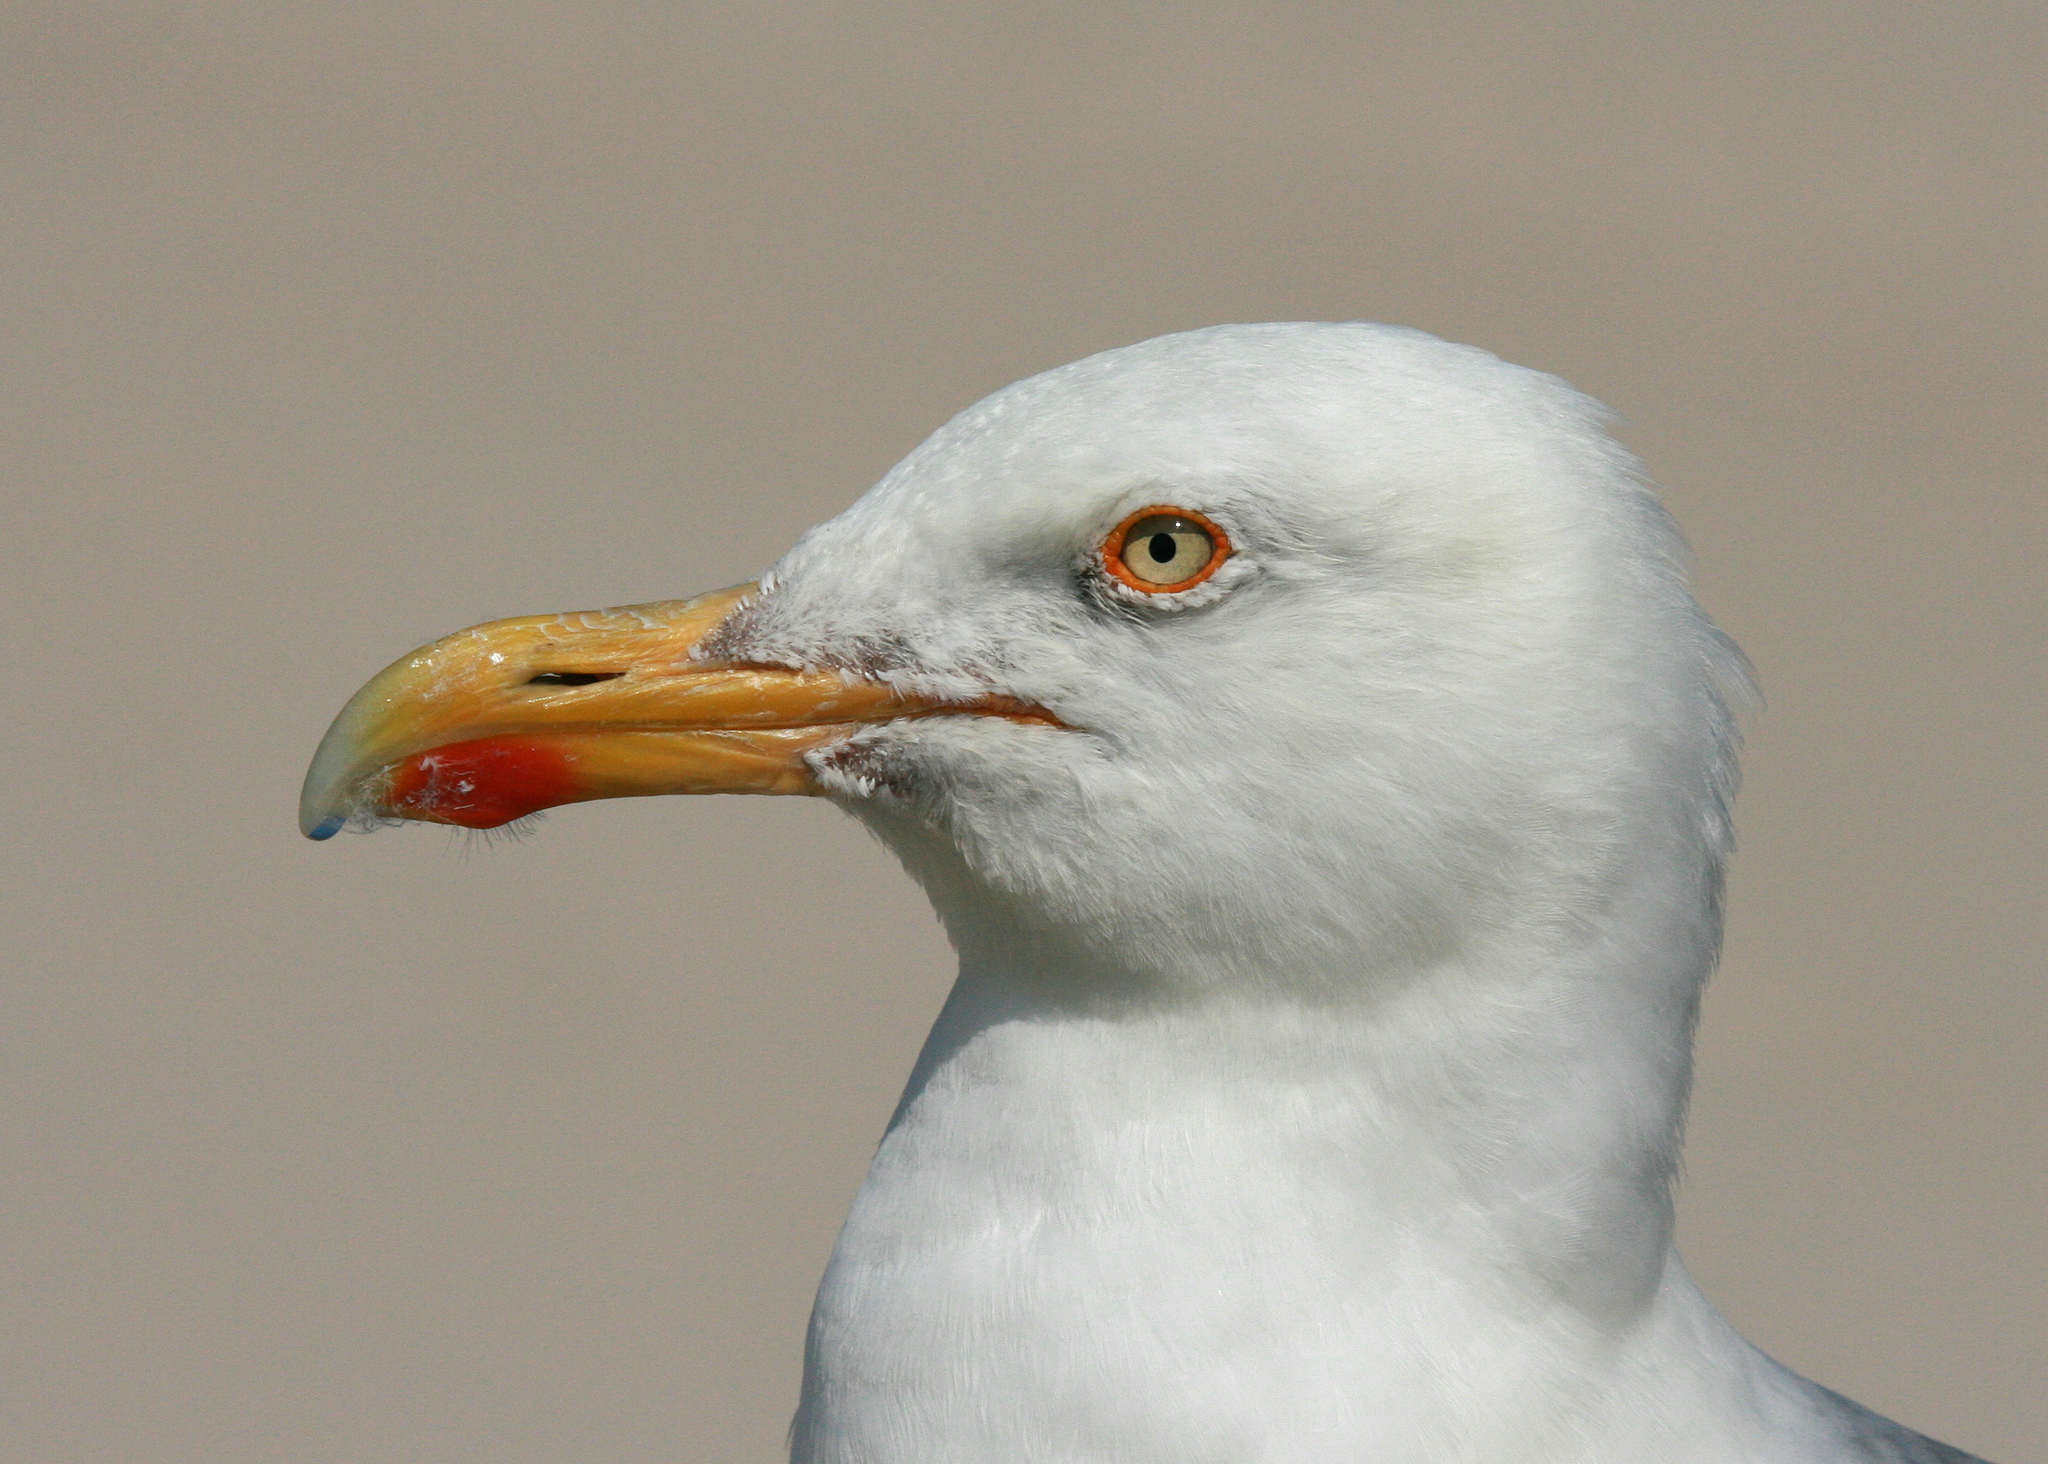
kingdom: Animalia
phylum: Chordata
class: Aves
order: Charadriiformes
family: Laridae
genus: Larus
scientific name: Larus argentatus
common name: Herring gull
